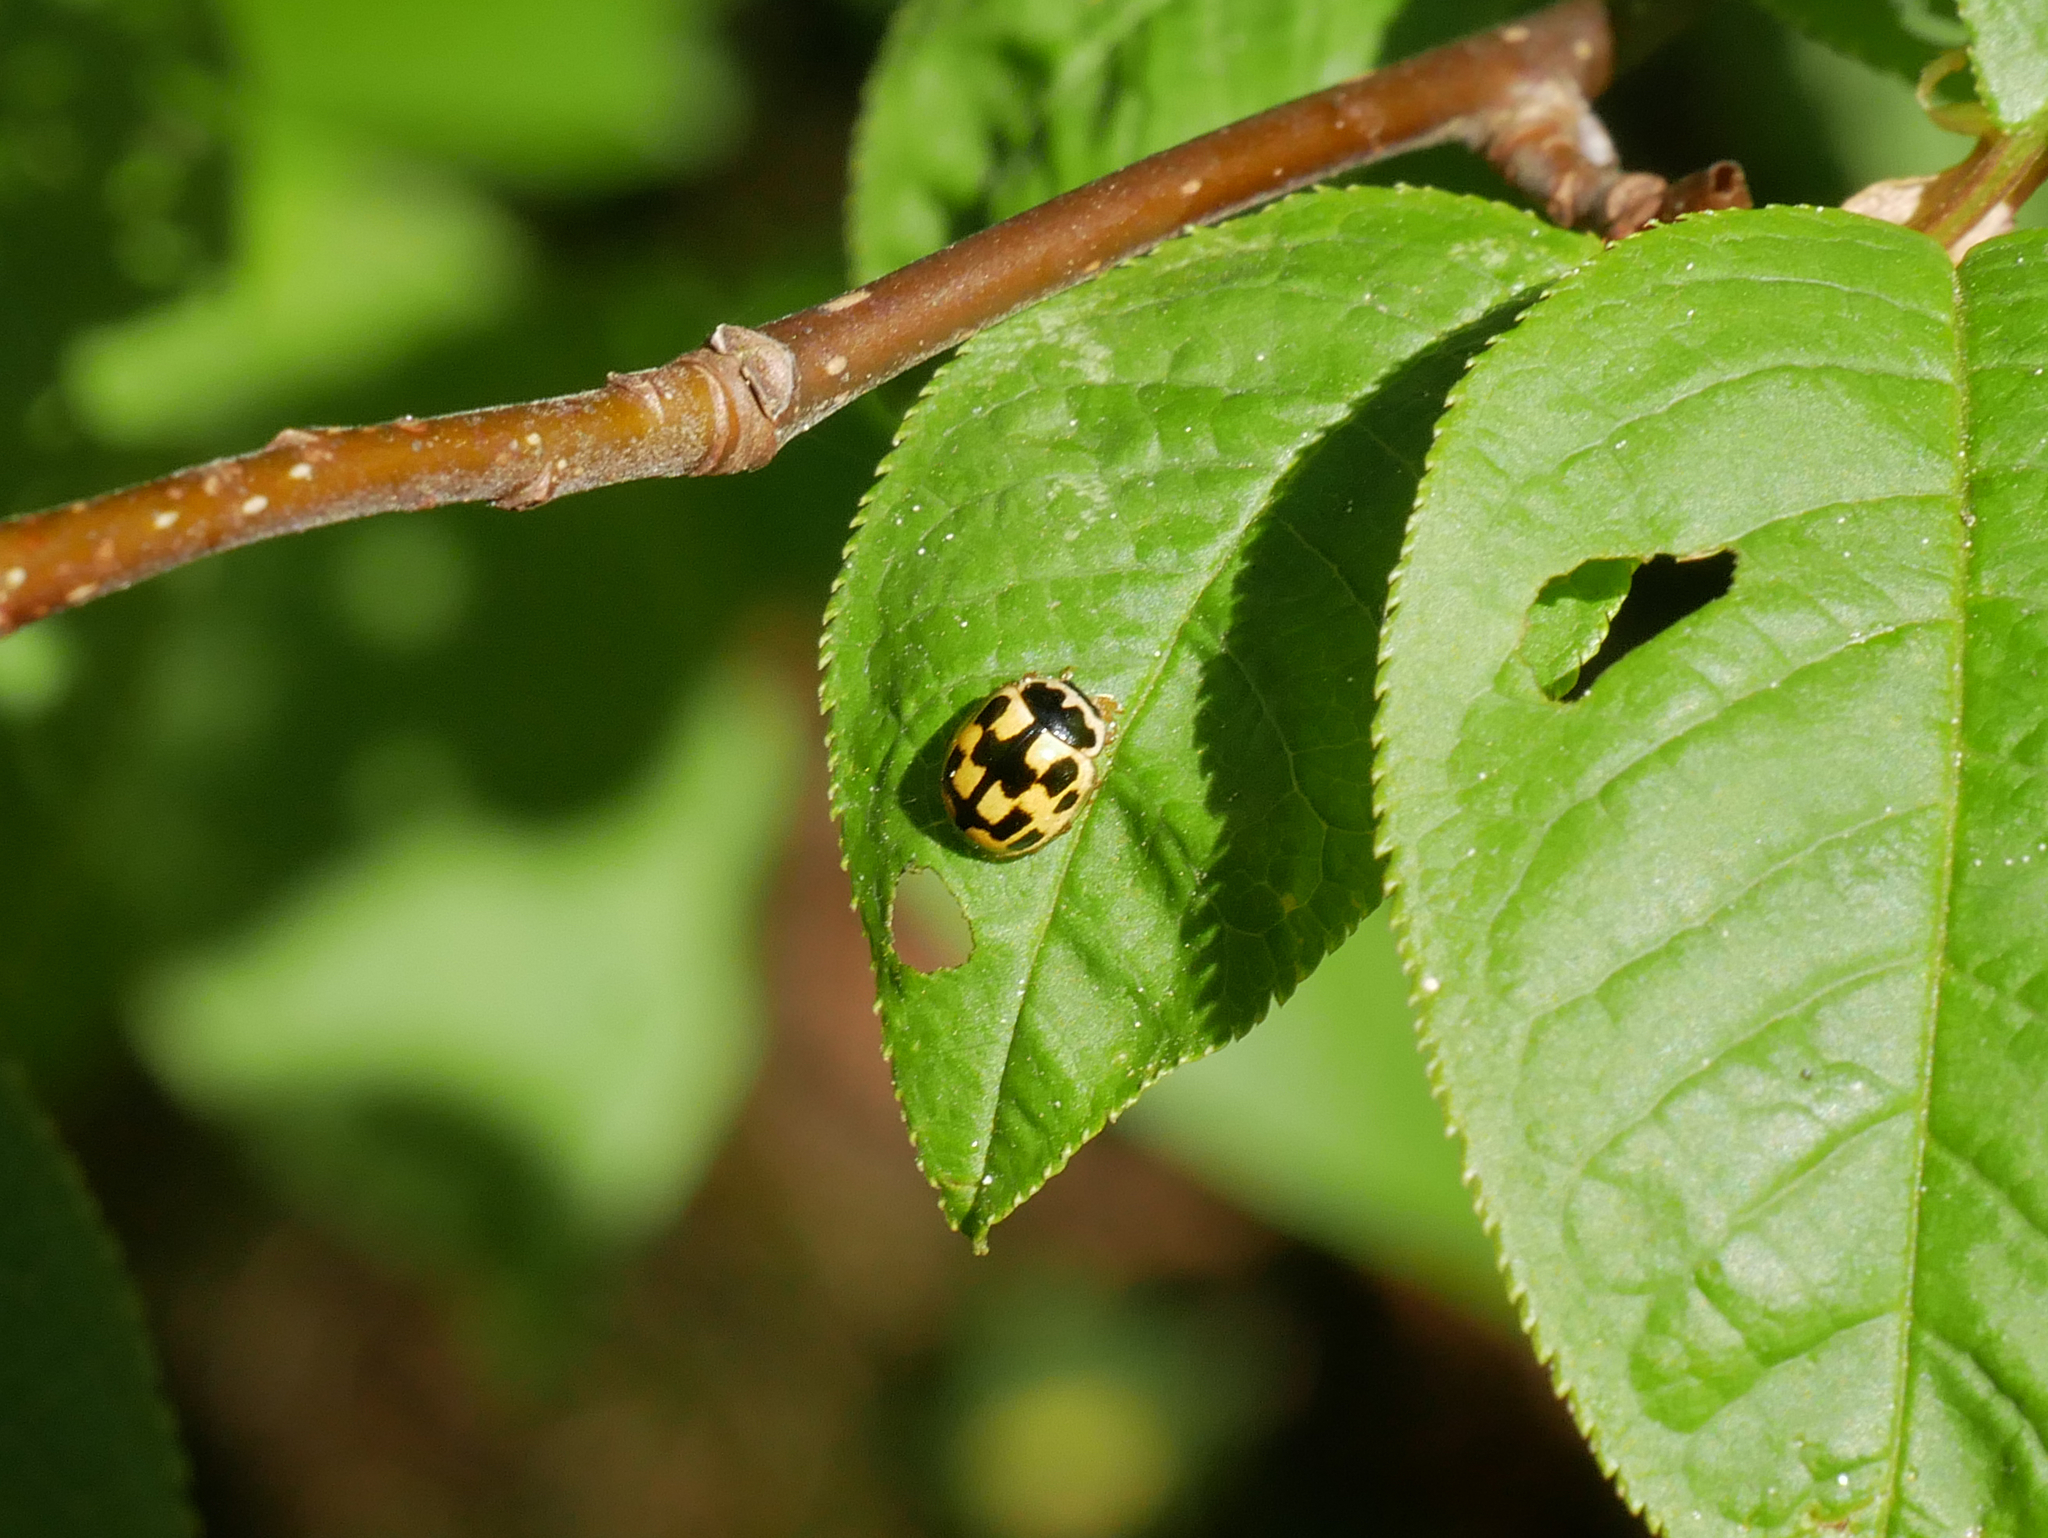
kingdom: Animalia
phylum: Arthropoda
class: Insecta
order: Coleoptera
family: Coccinellidae
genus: Propylaea
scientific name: Propylaea quatuordecimpunctata
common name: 14-spotted ladybird beetle
